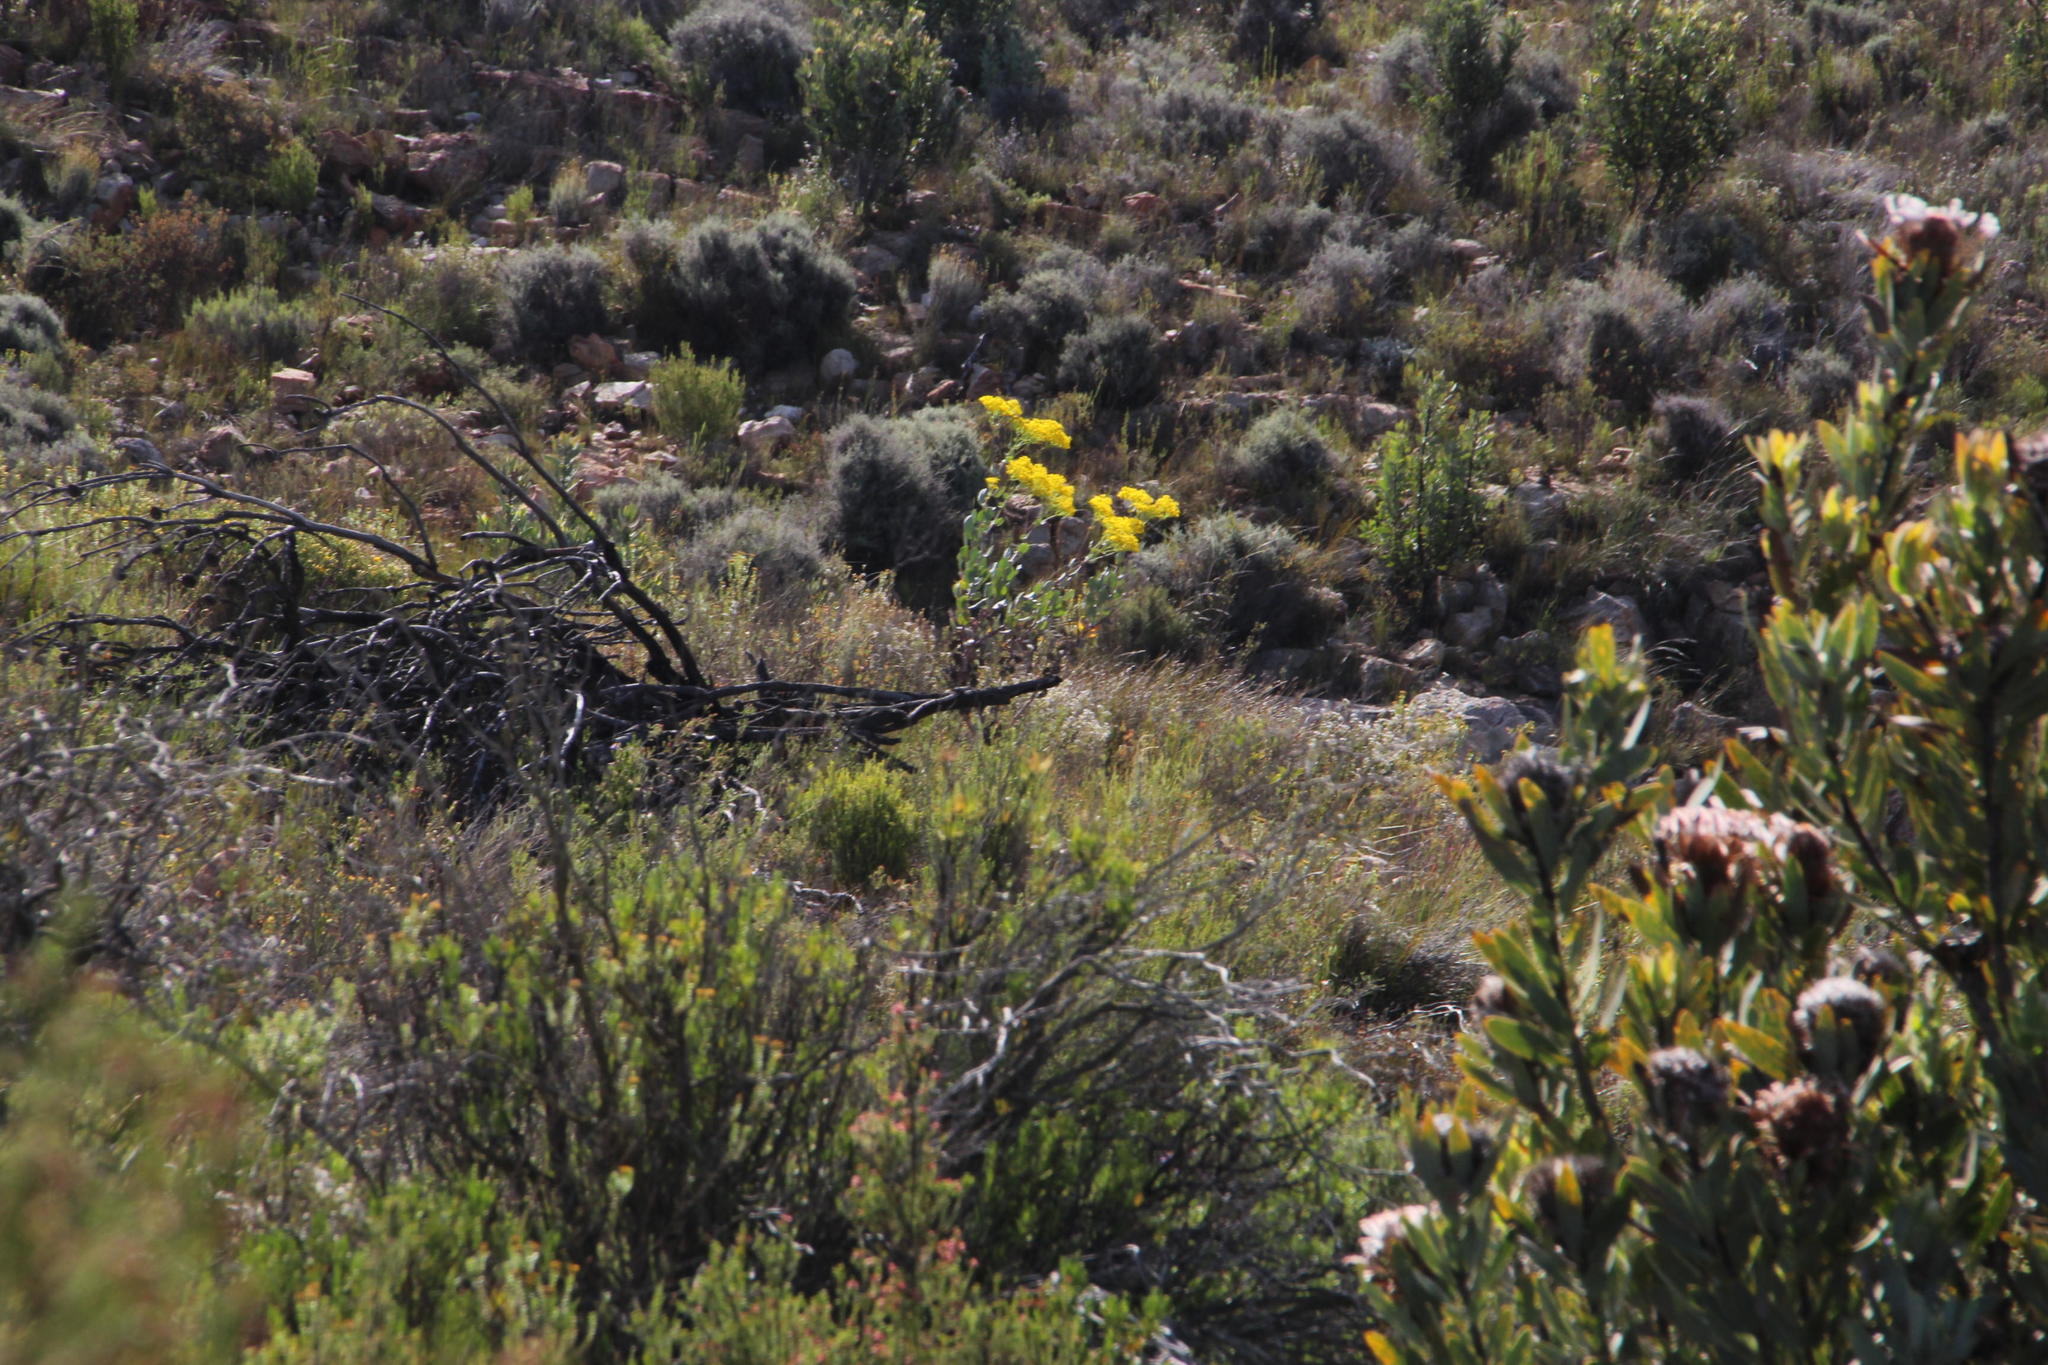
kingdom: Plantae
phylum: Tracheophyta
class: Magnoliopsida
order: Asterales
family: Asteraceae
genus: Othonna
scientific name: Othonna parviflora
